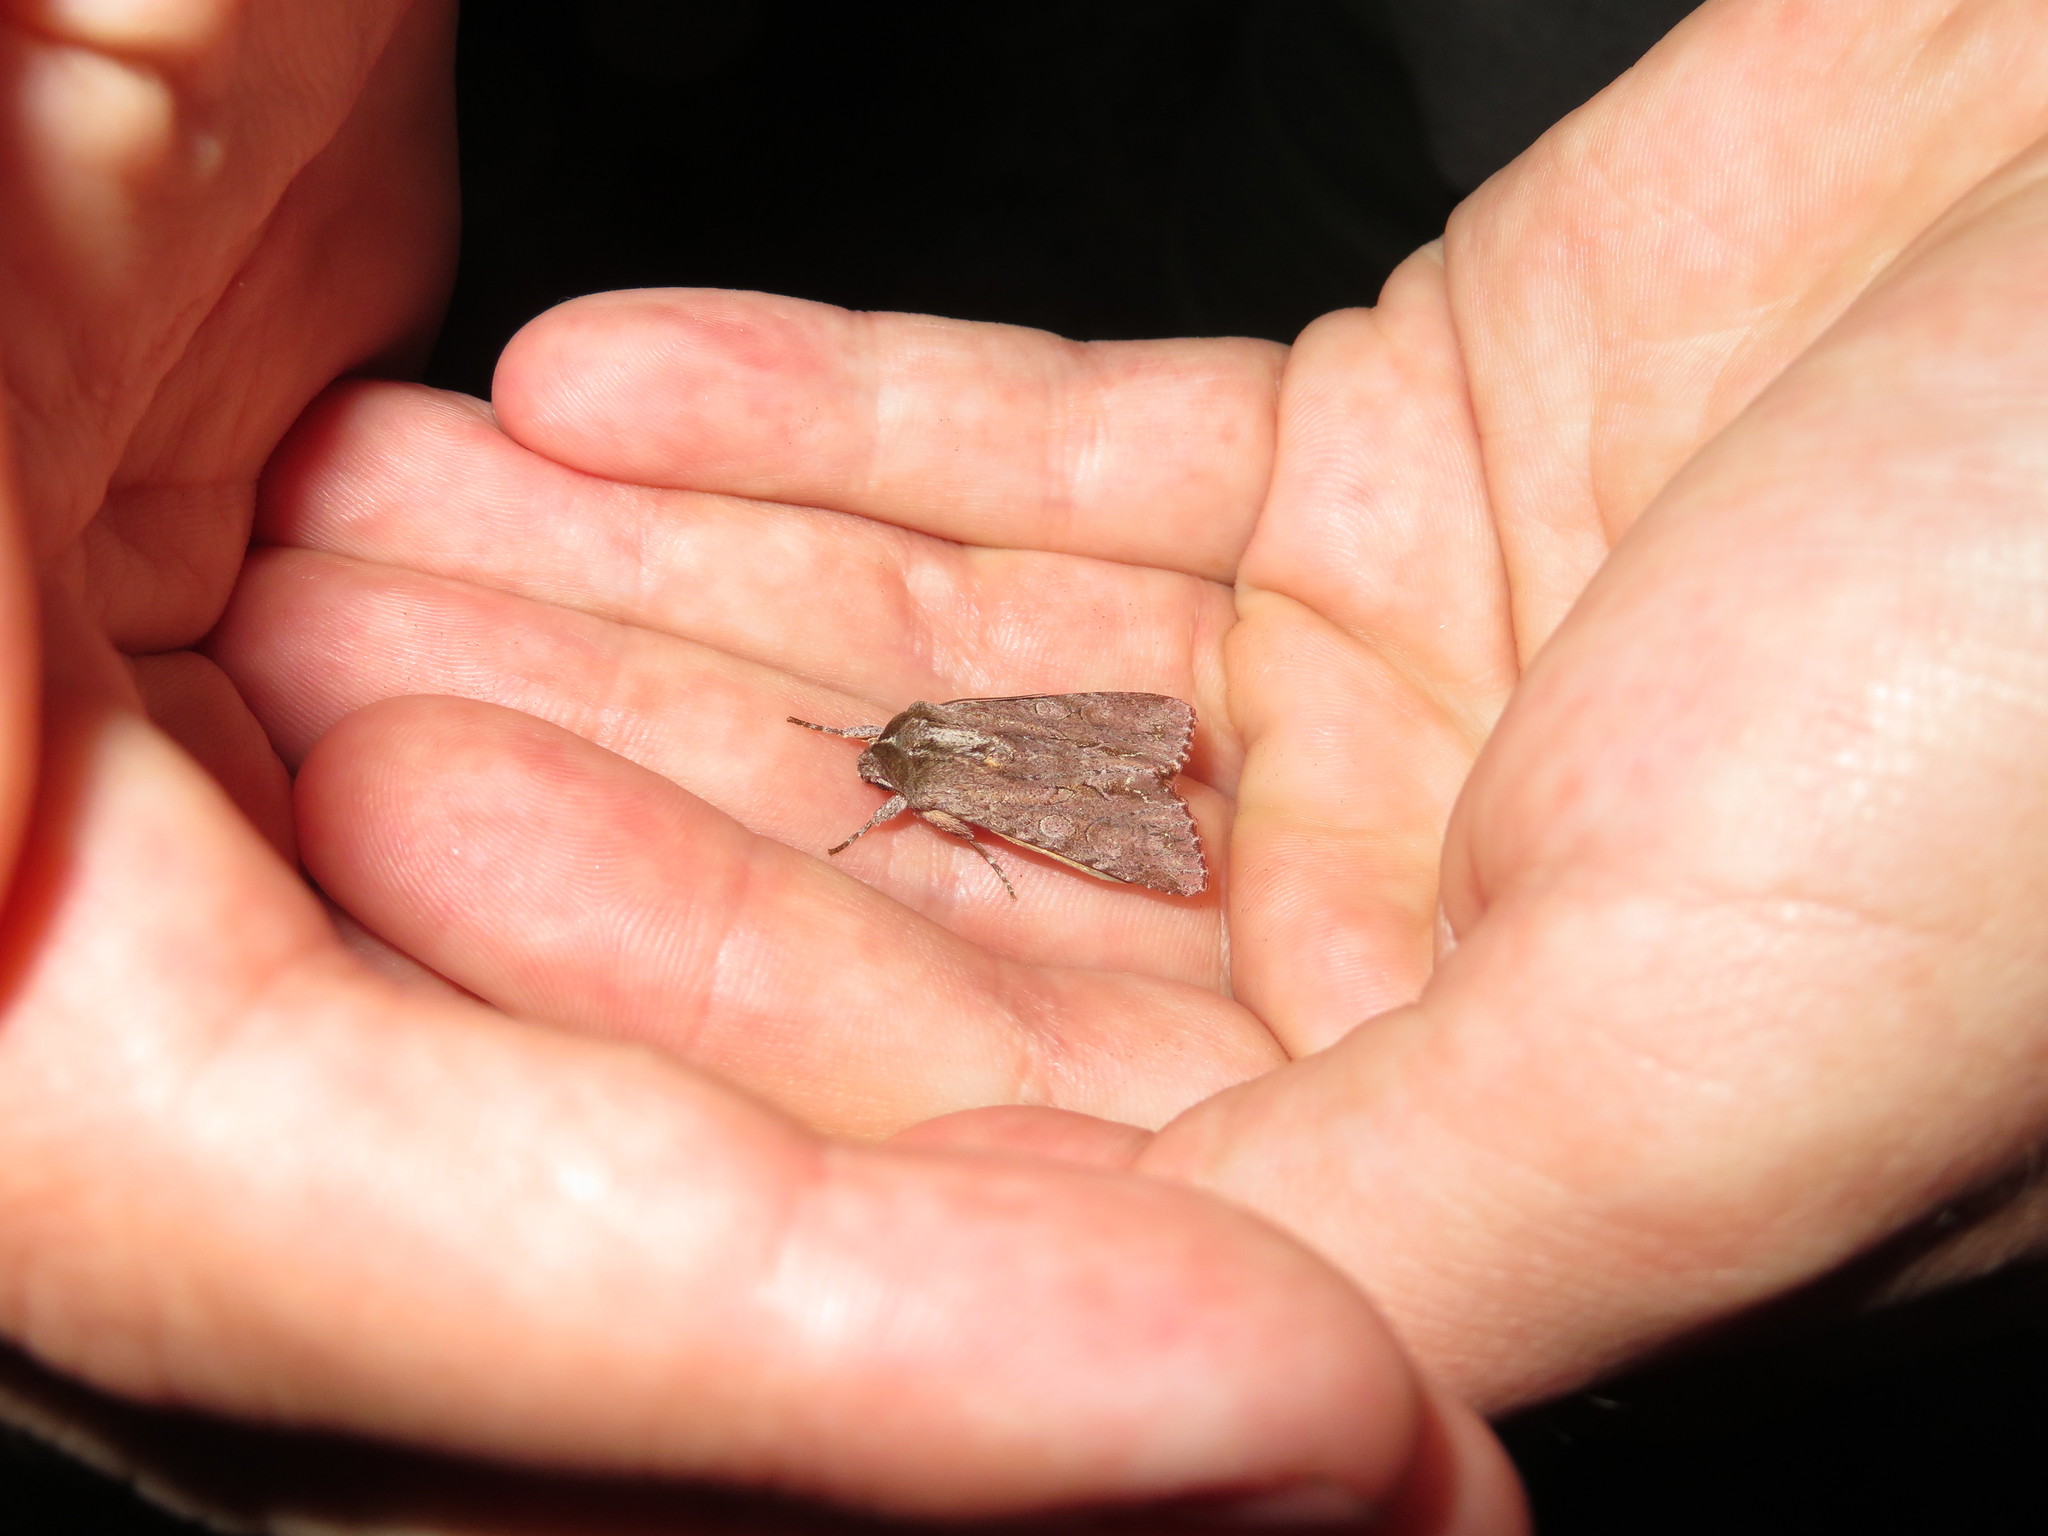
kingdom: Animalia
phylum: Arthropoda
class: Insecta
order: Lepidoptera
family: Noctuidae
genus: Ichneutica
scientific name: Ichneutica
